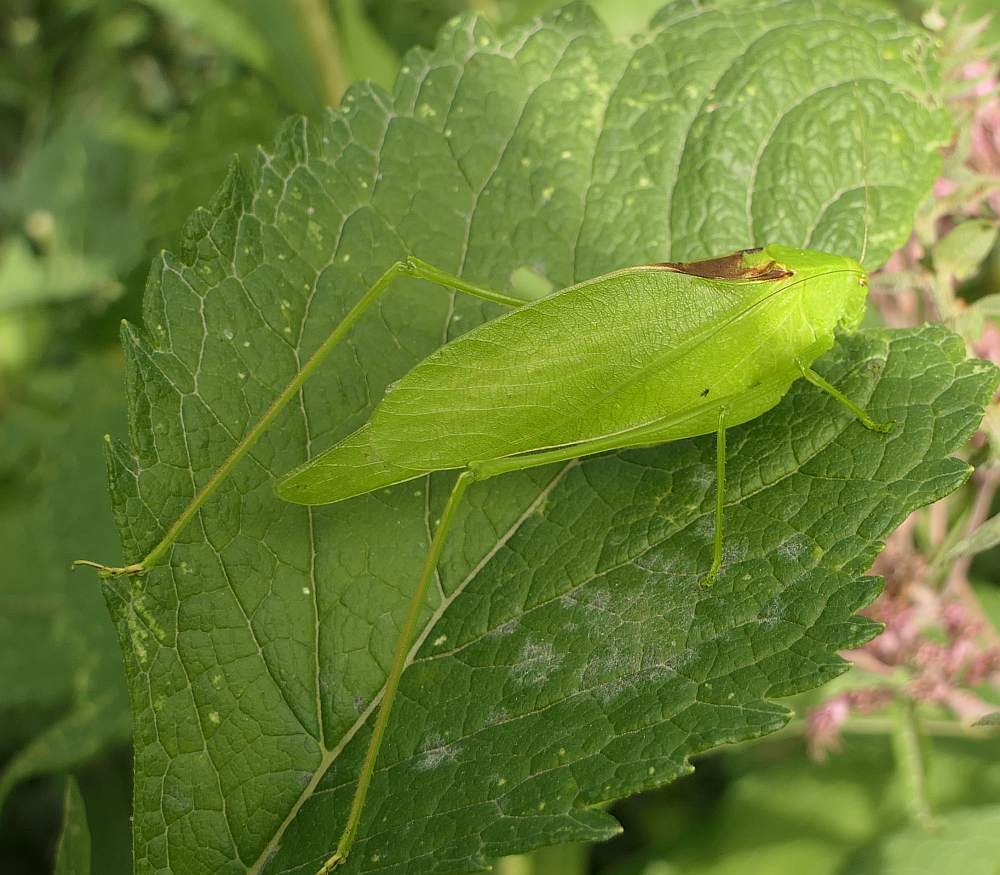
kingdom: Animalia
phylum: Arthropoda
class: Insecta
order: Orthoptera
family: Tettigoniidae
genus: Amblycorypha
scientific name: Amblycorypha oblongifolia
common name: Oblong-winged katydid
